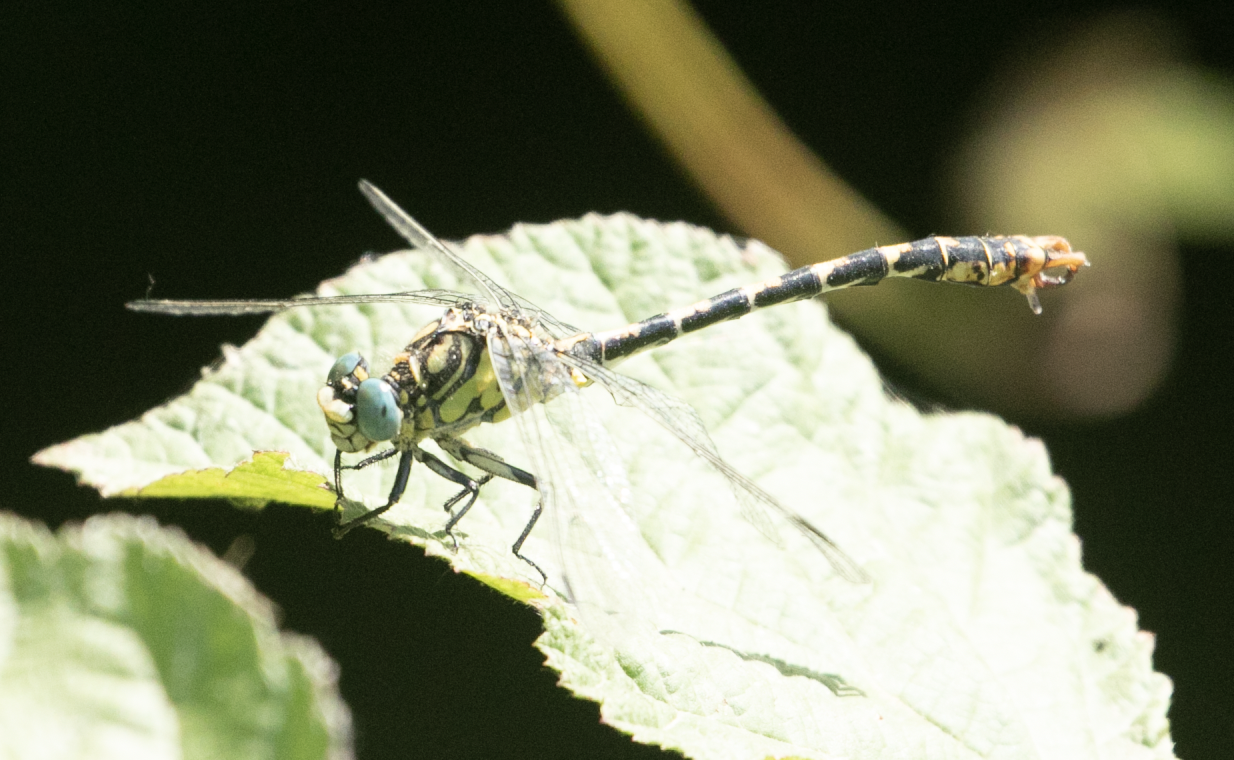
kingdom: Animalia
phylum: Arthropoda
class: Insecta
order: Odonata
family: Gomphidae
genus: Onychogomphus
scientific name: Onychogomphus forcipatus
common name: Small pincertail
